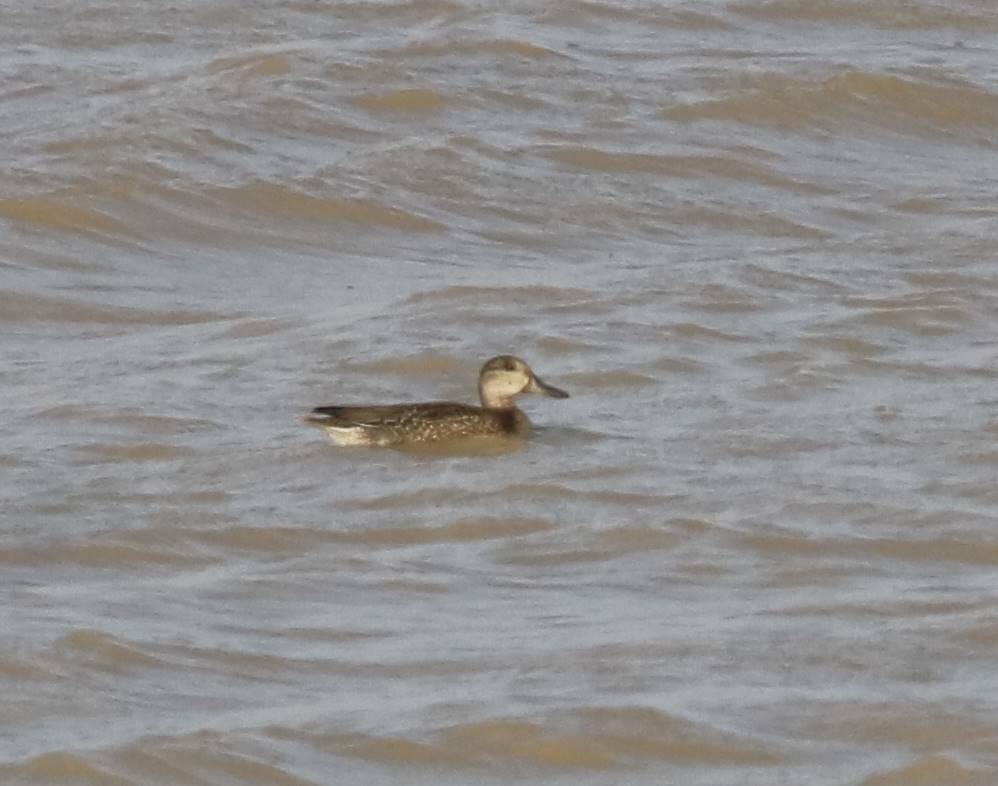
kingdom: Animalia
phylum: Chordata
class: Aves
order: Anseriformes
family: Anatidae
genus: Anas
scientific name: Anas crecca
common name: Eurasian teal
